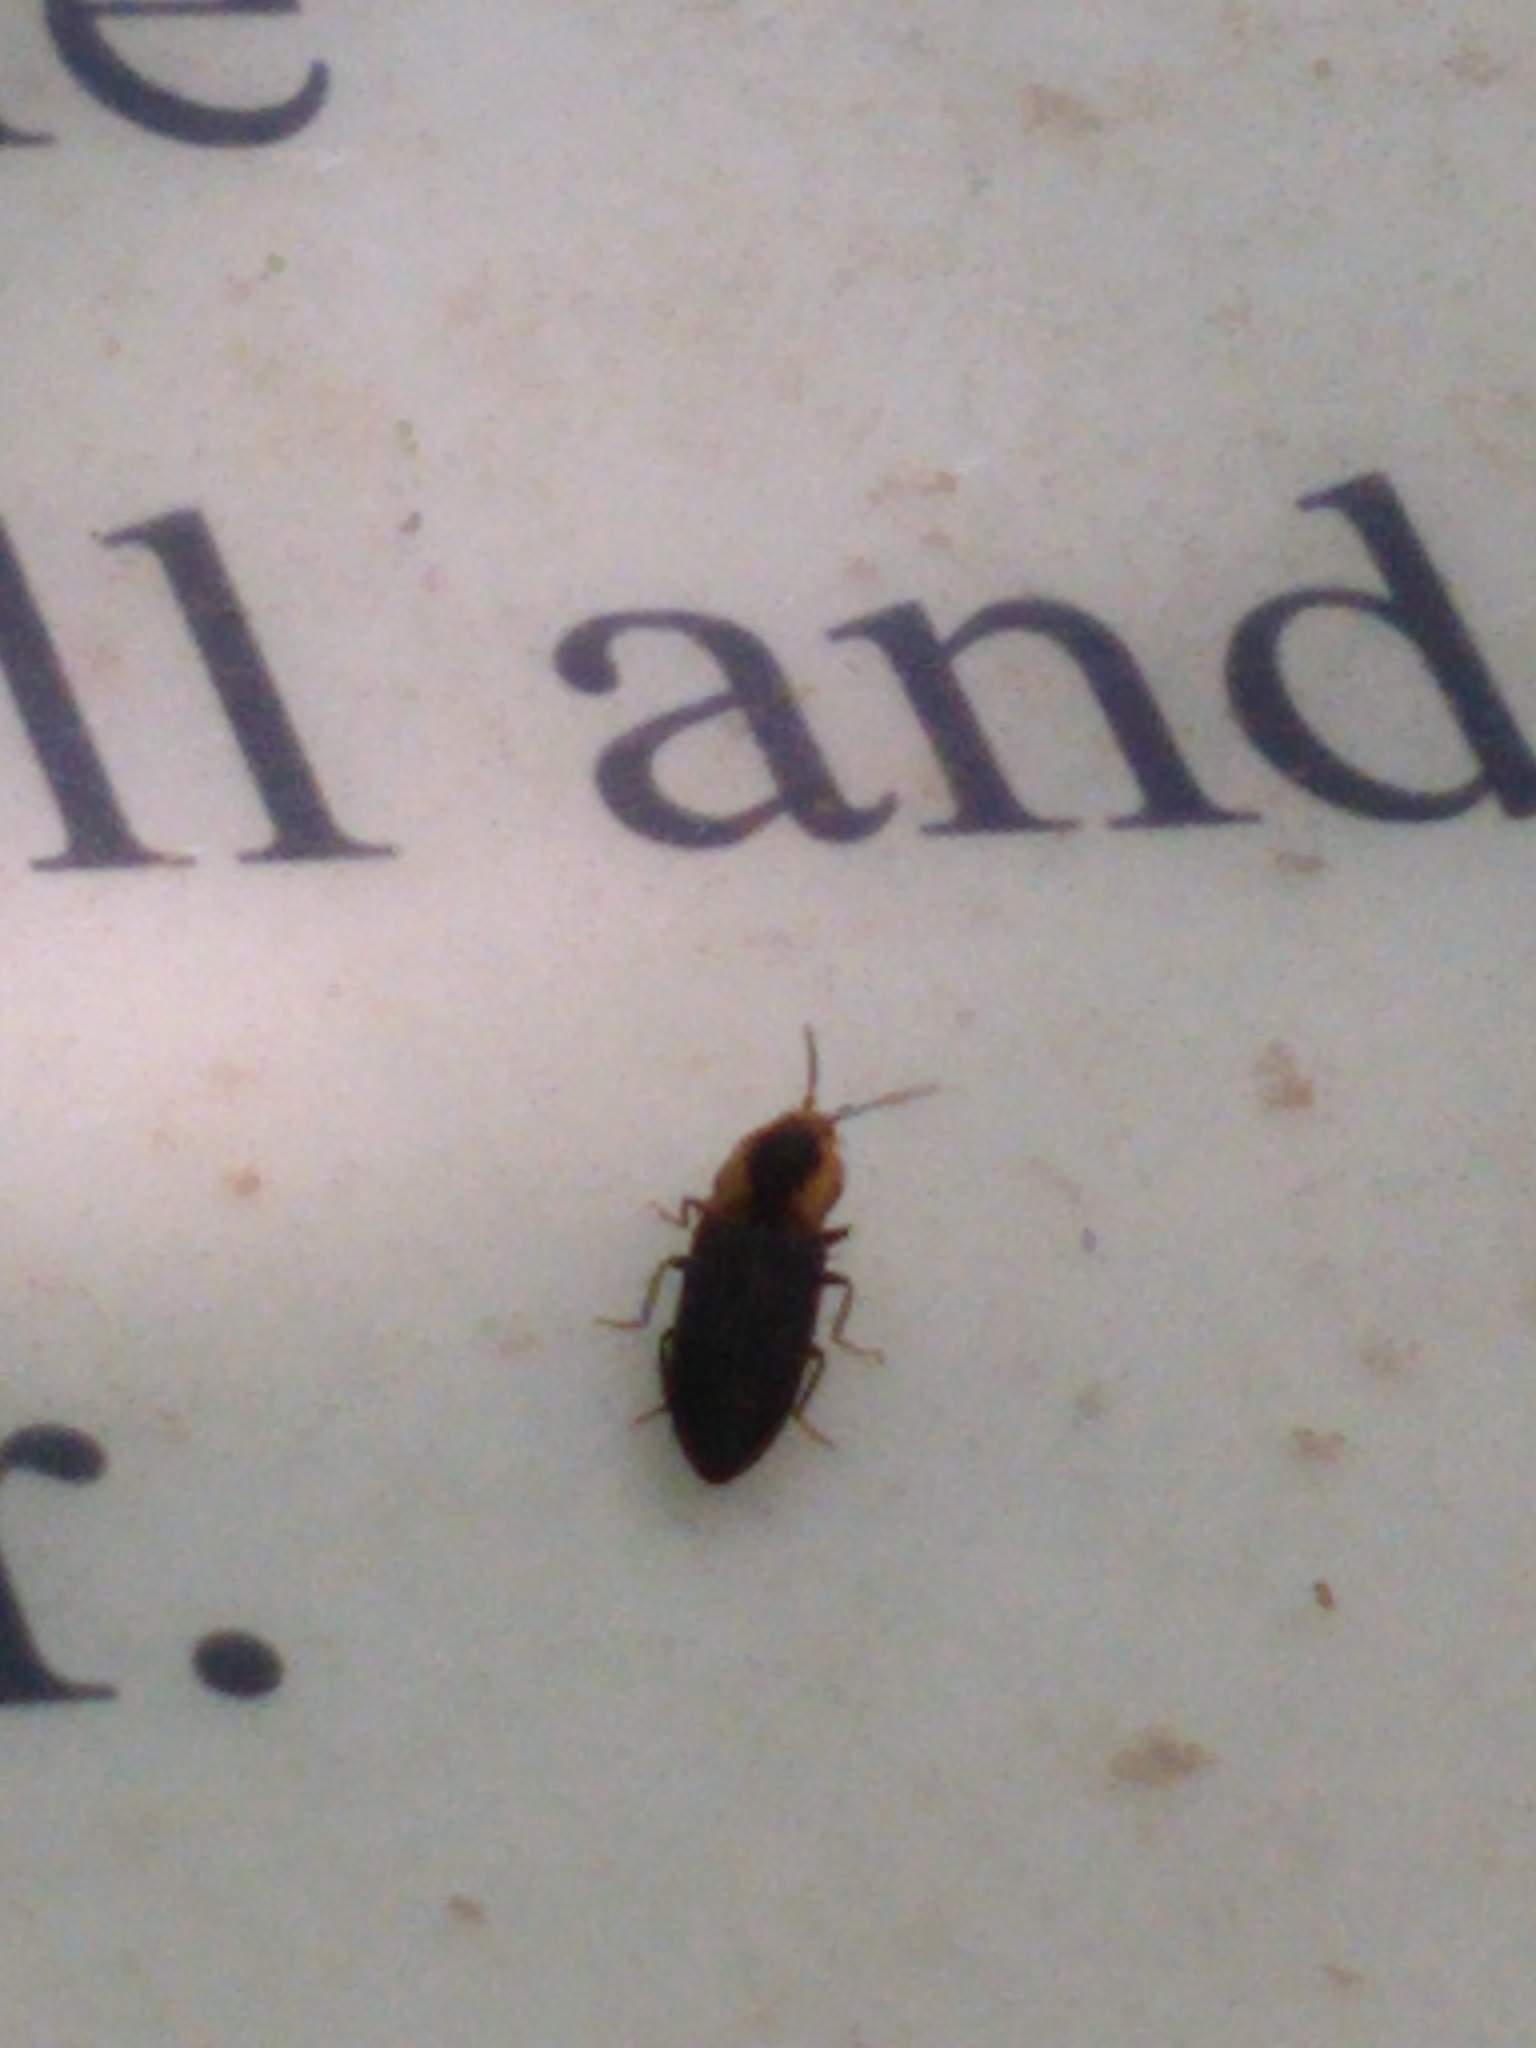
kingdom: Animalia
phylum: Arthropoda
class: Insecta
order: Coleoptera
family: Elateridae
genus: Lacon
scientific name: Lacon discoideus
